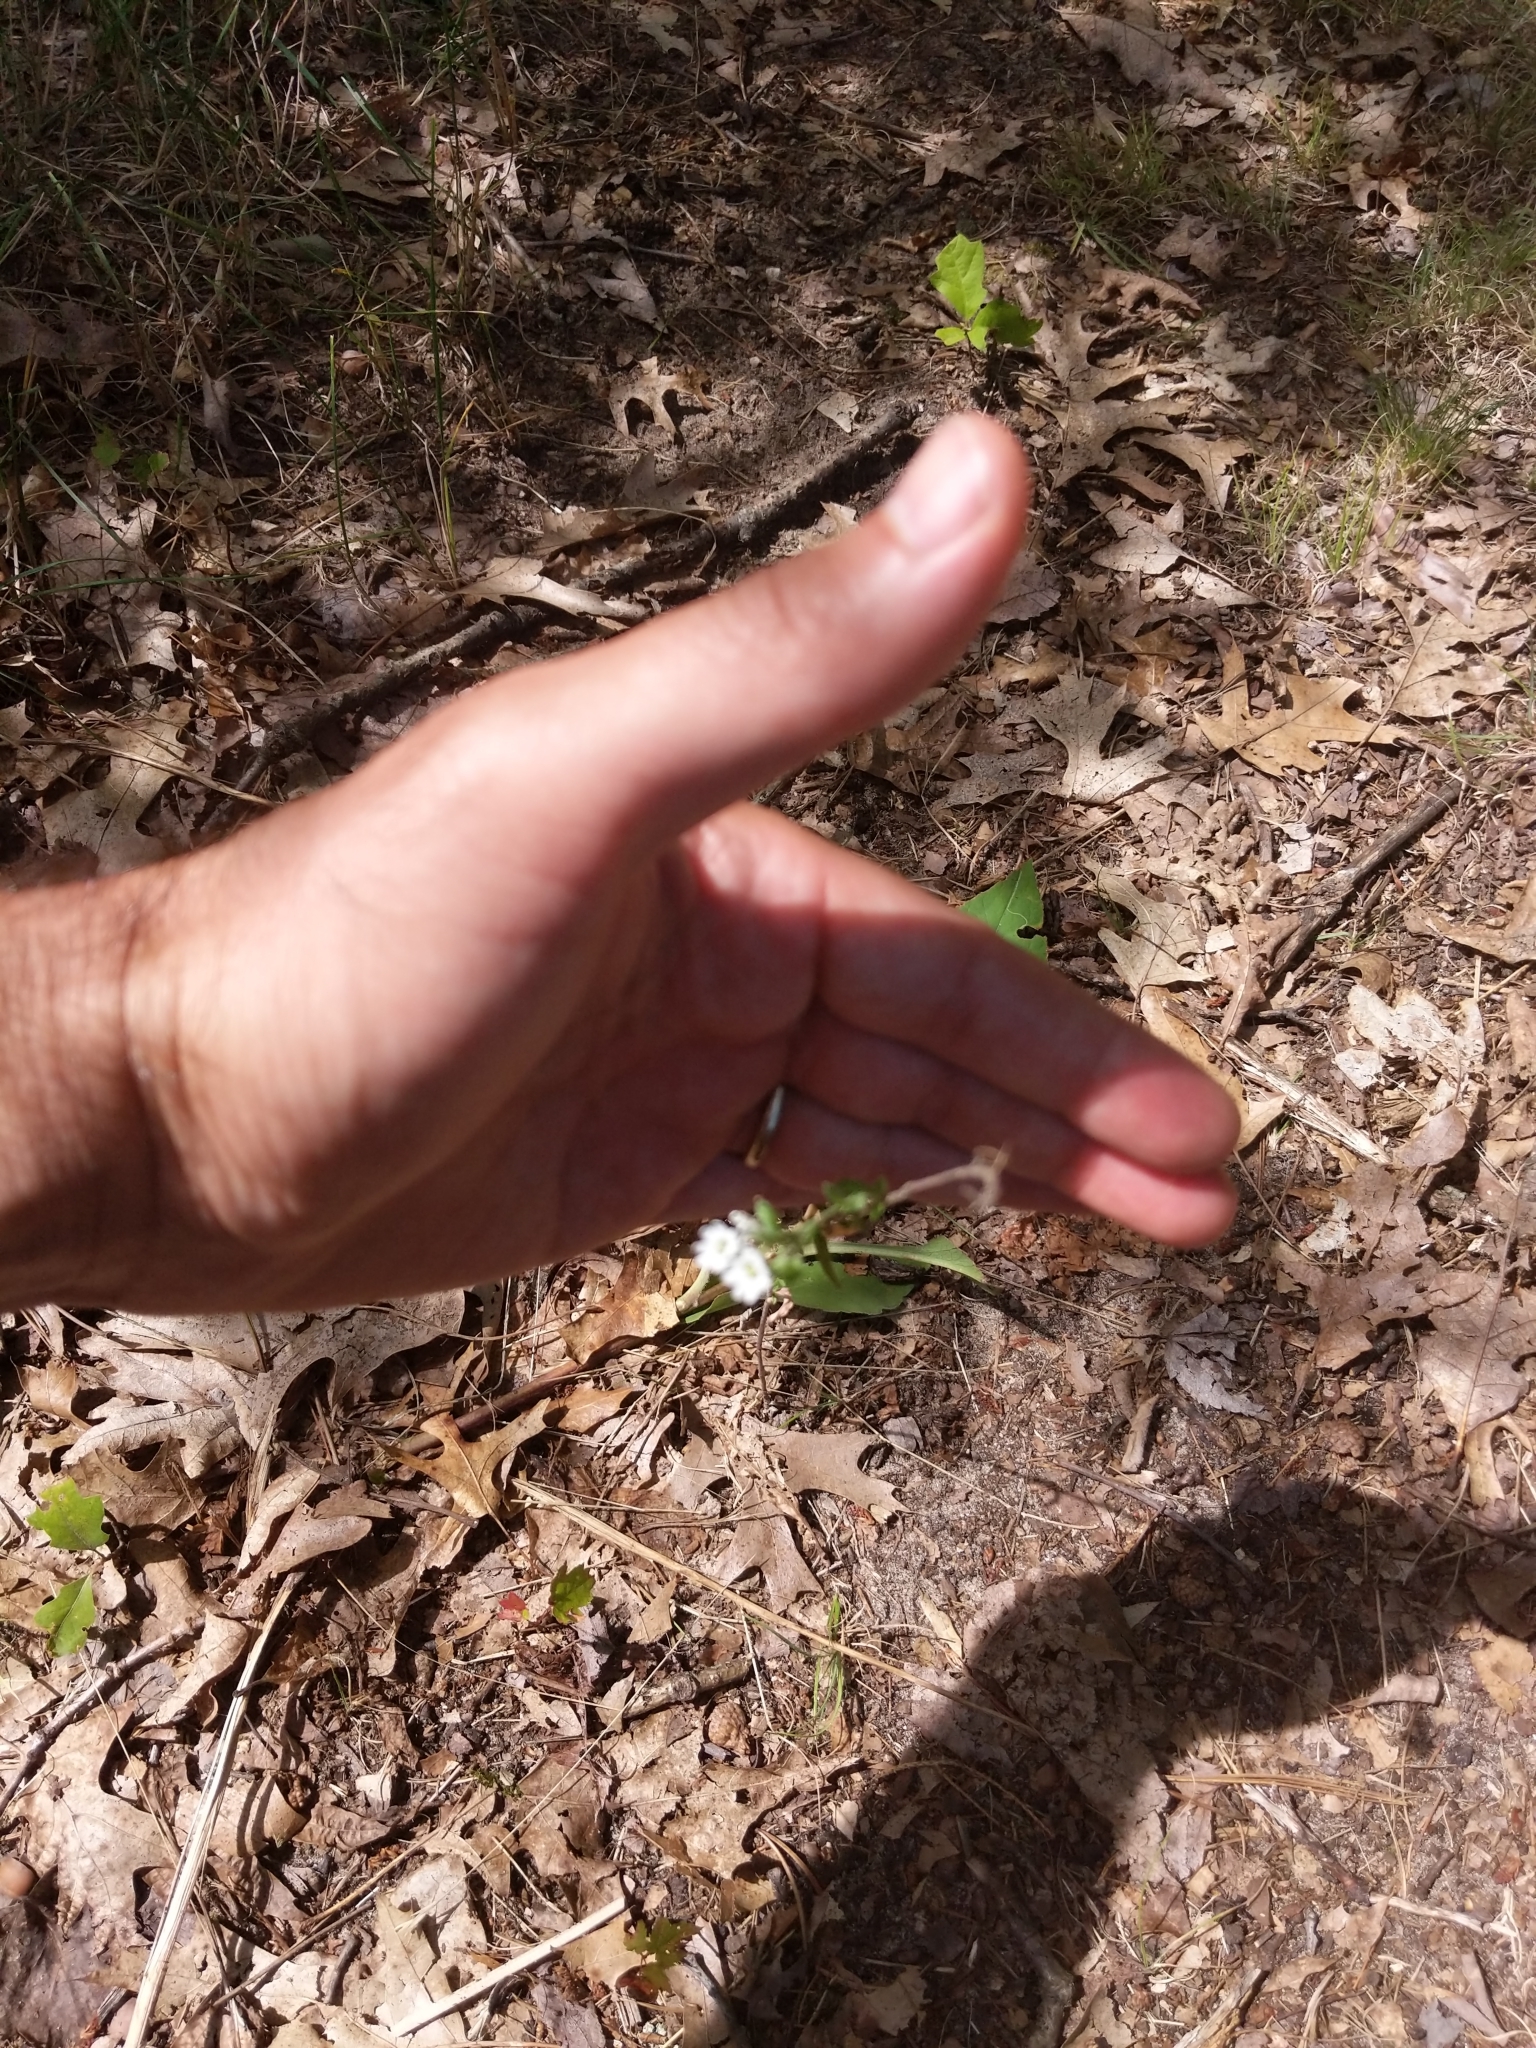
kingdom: Plantae
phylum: Tracheophyta
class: Magnoliopsida
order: Brassicales
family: Brassicaceae
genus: Berteroa
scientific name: Berteroa incana
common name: Hoary alison
